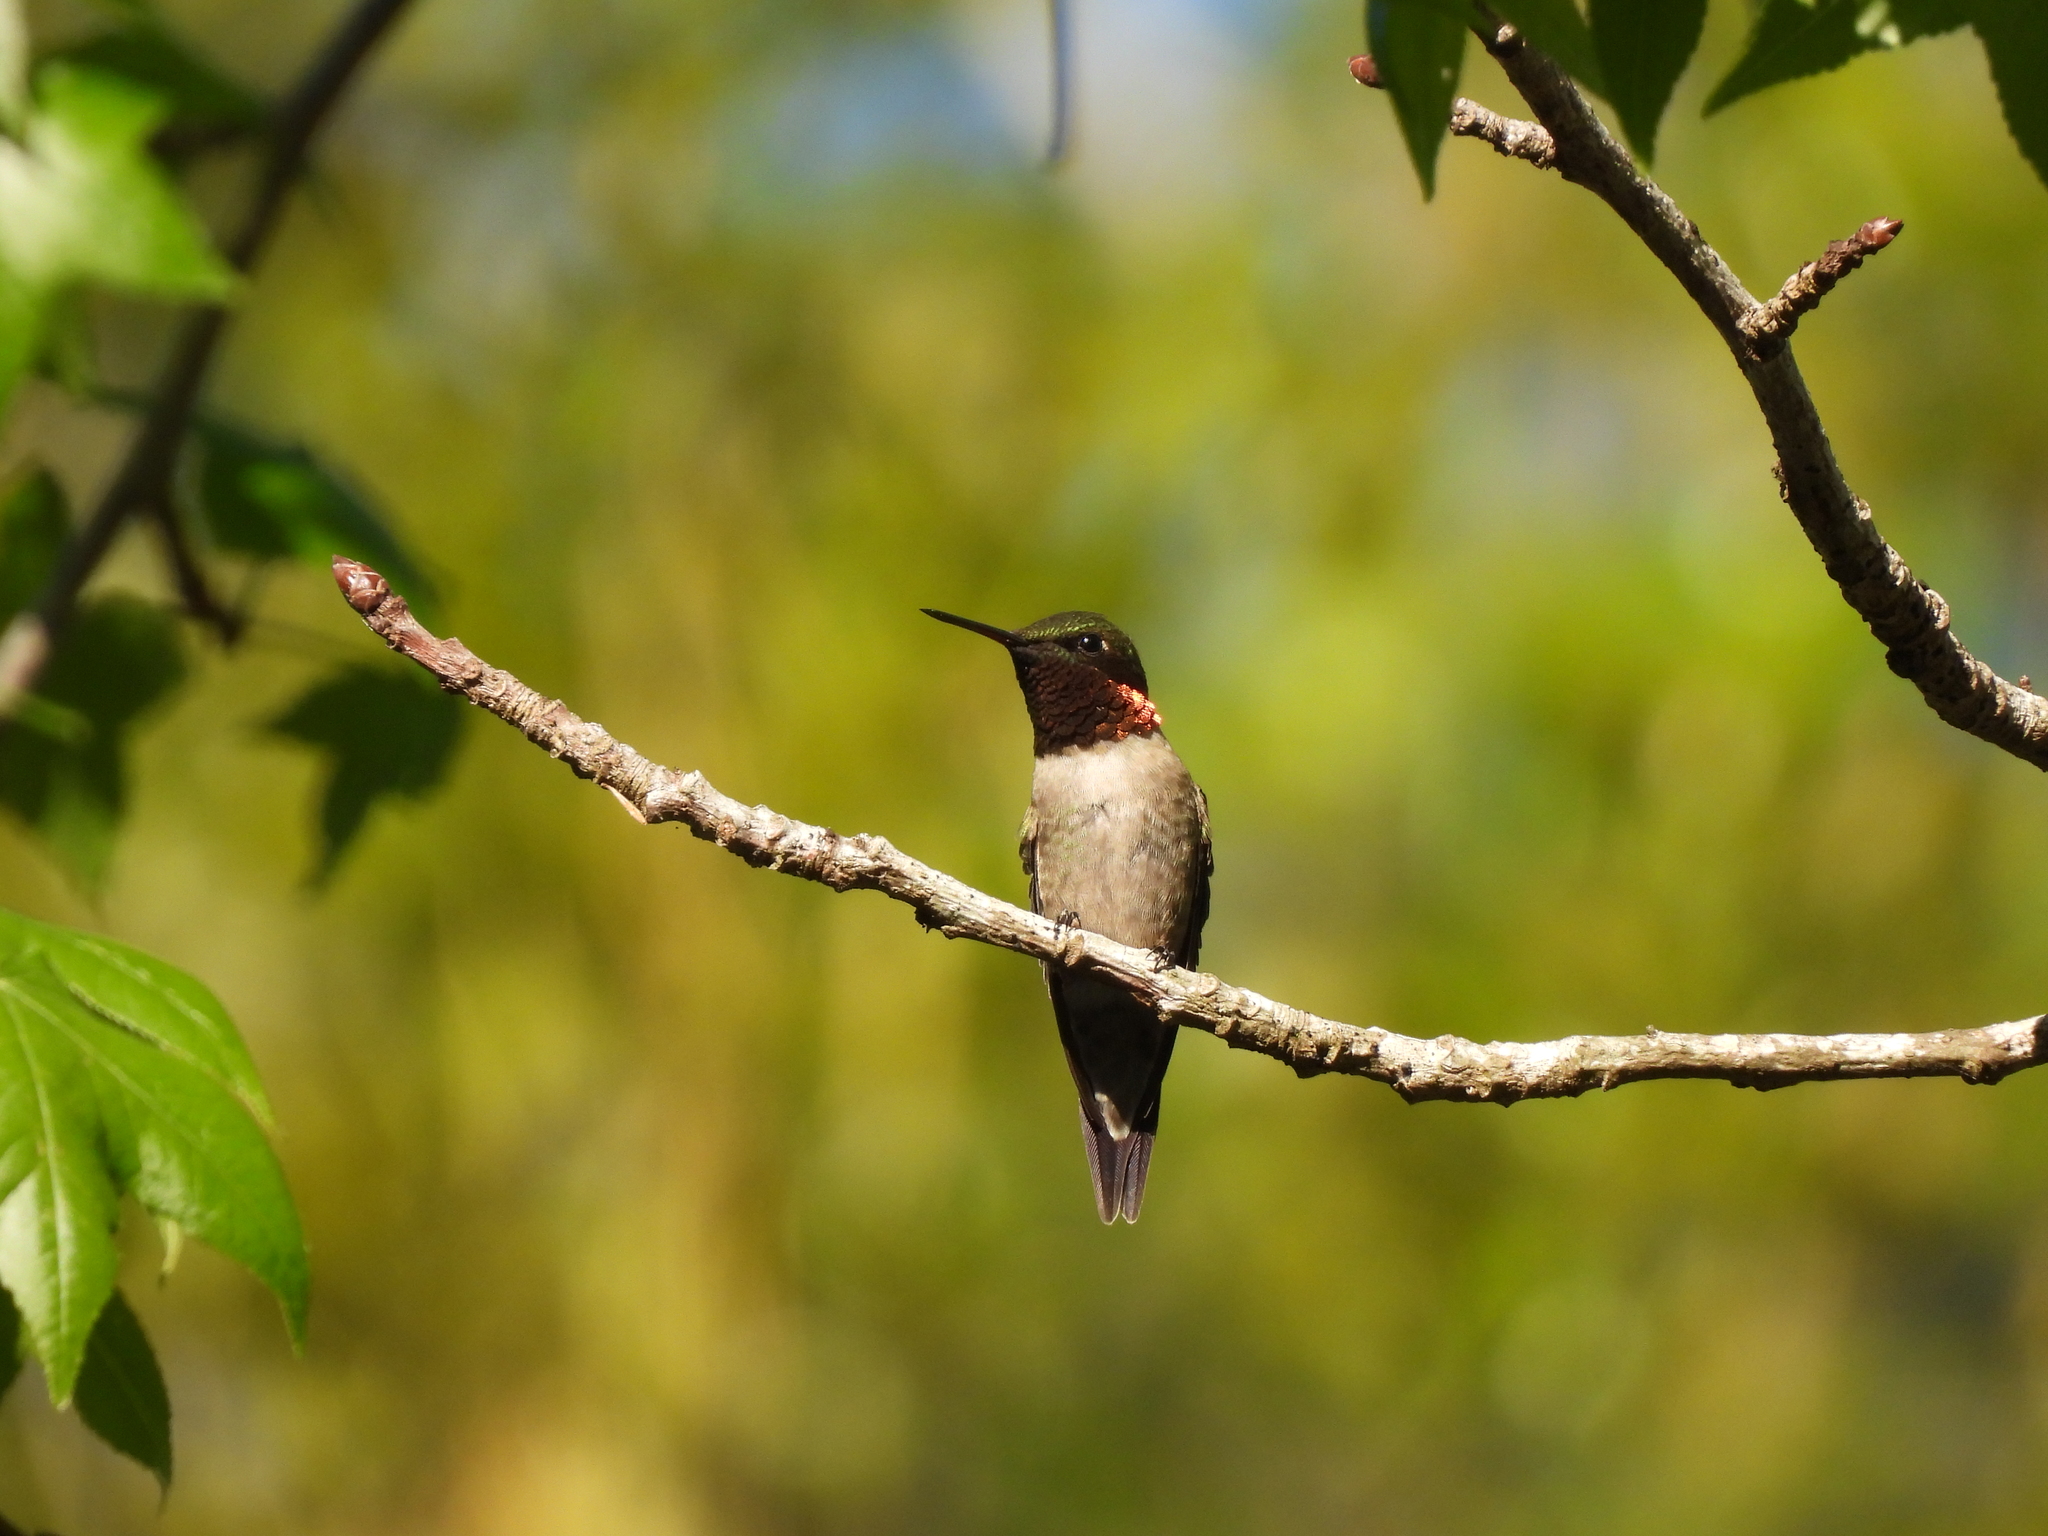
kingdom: Animalia
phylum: Chordata
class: Aves
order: Apodiformes
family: Trochilidae
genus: Archilochus
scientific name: Archilochus colubris
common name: Ruby-throated hummingbird
